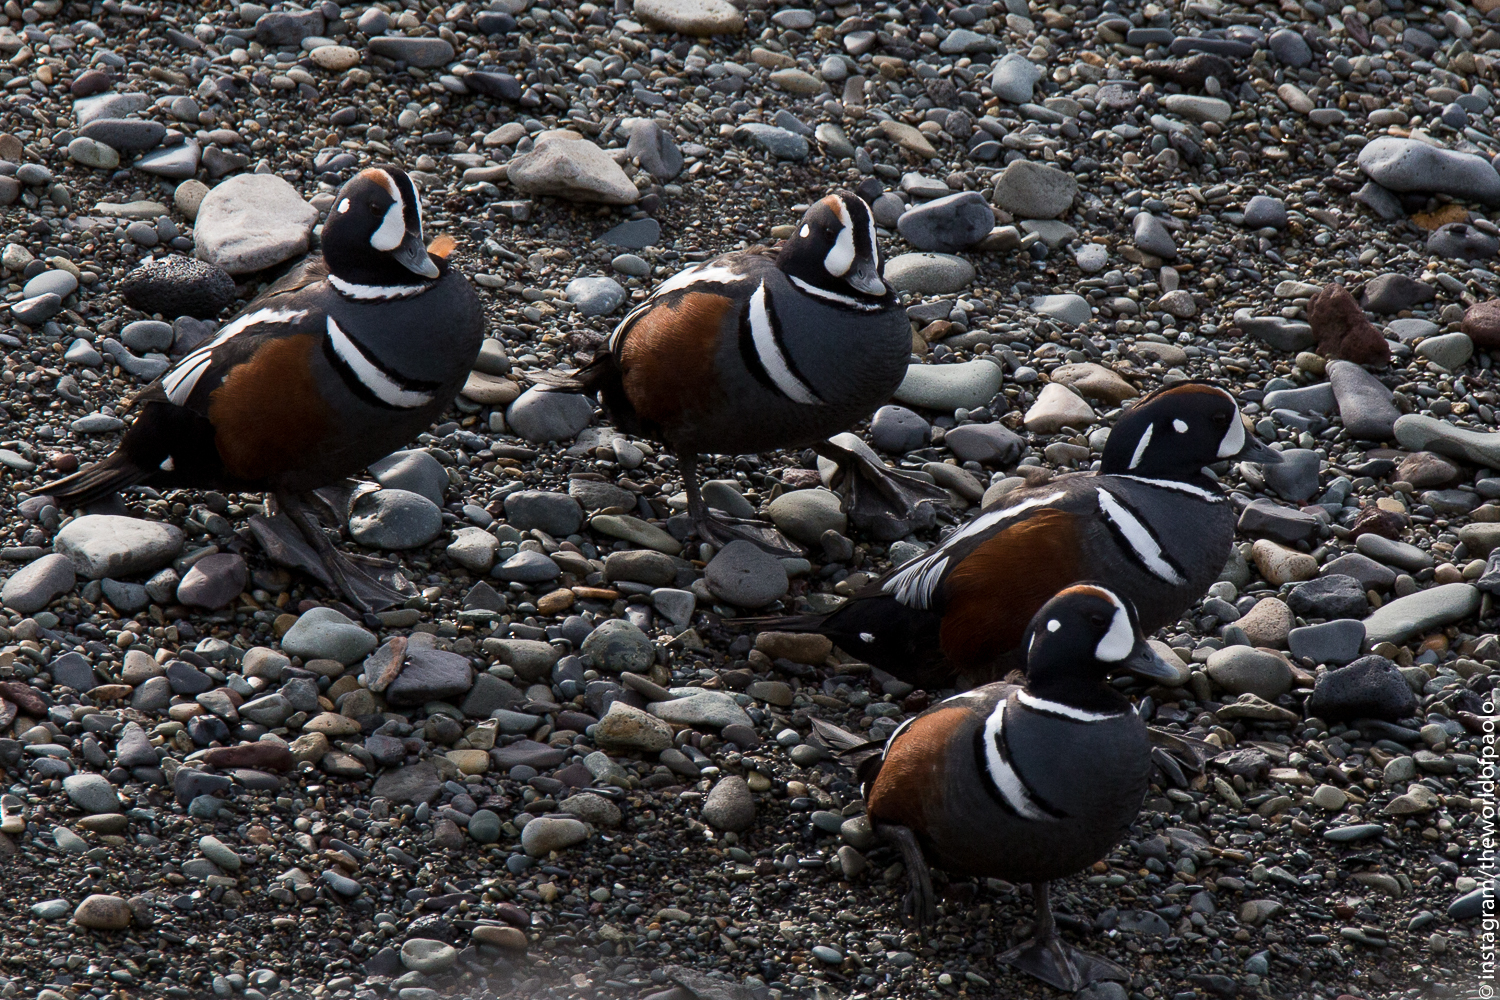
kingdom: Animalia
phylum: Chordata
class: Aves
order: Anseriformes
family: Anatidae
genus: Histrionicus
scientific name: Histrionicus histrionicus
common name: Harlequin duck
